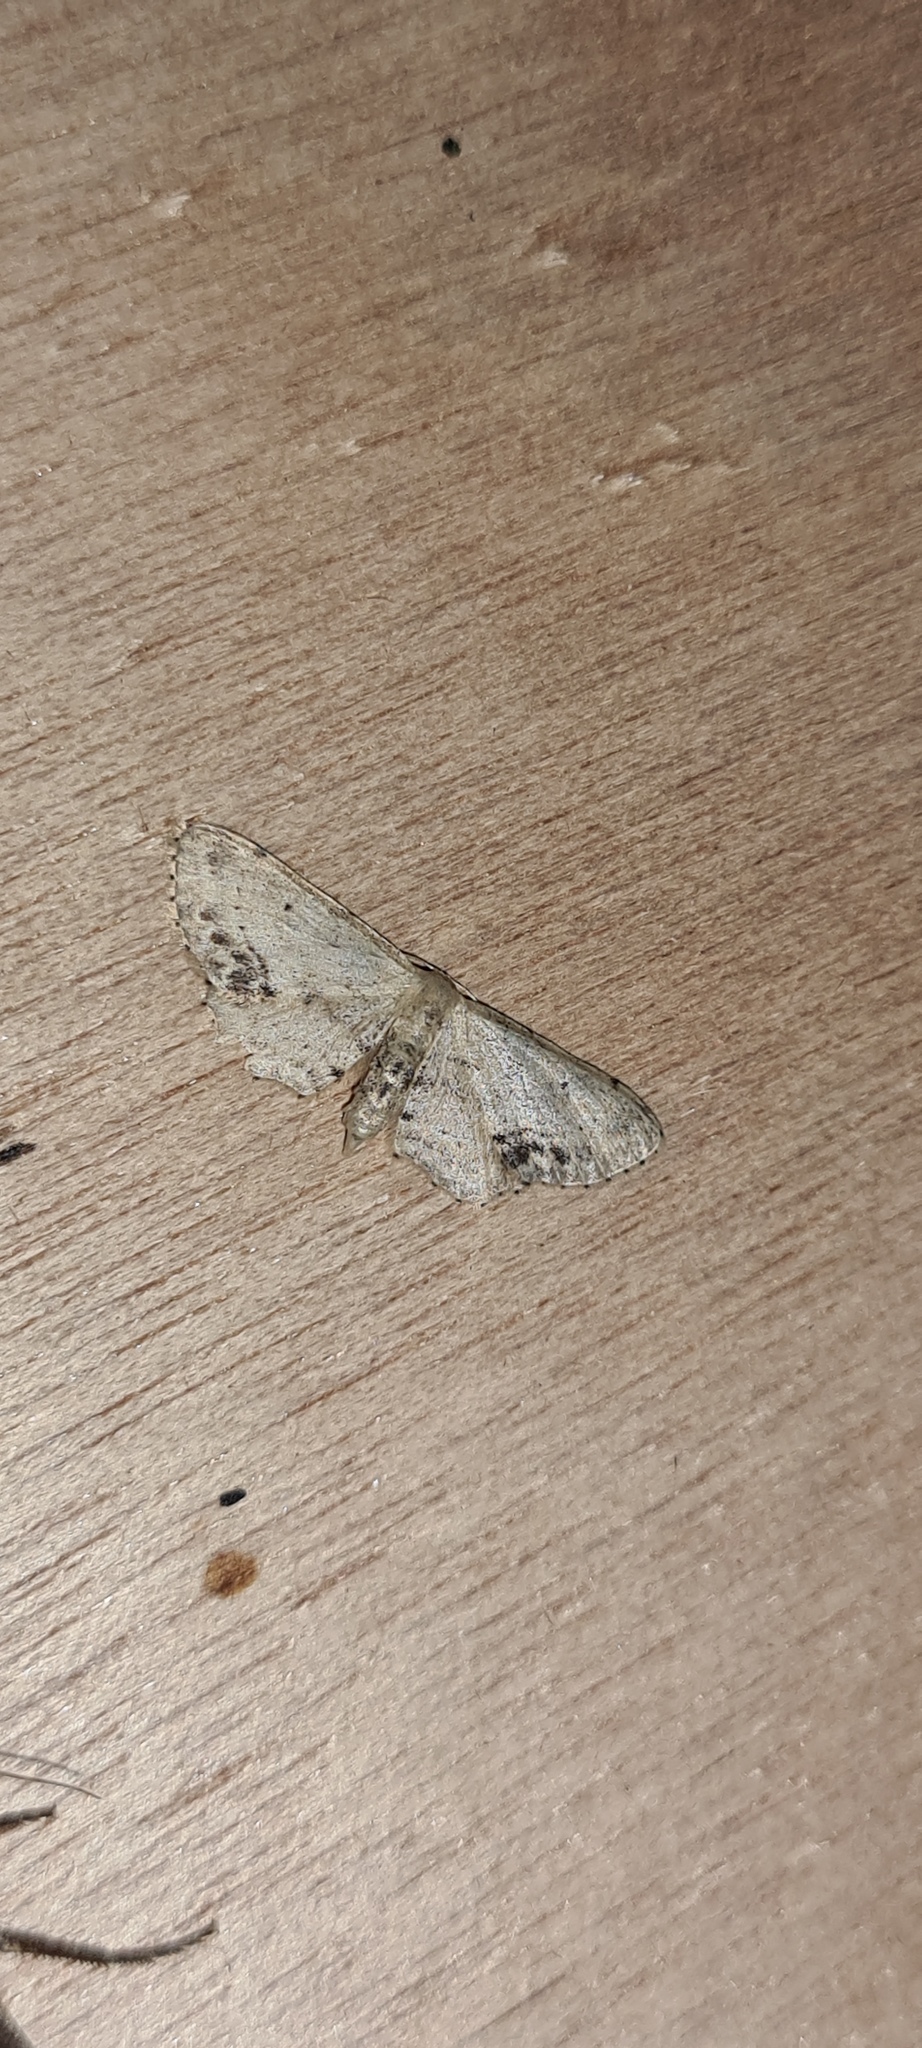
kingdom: Animalia
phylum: Arthropoda
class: Insecta
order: Lepidoptera
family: Geometridae
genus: Idaea
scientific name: Idaea dimidiata
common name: Single-dotted wave
